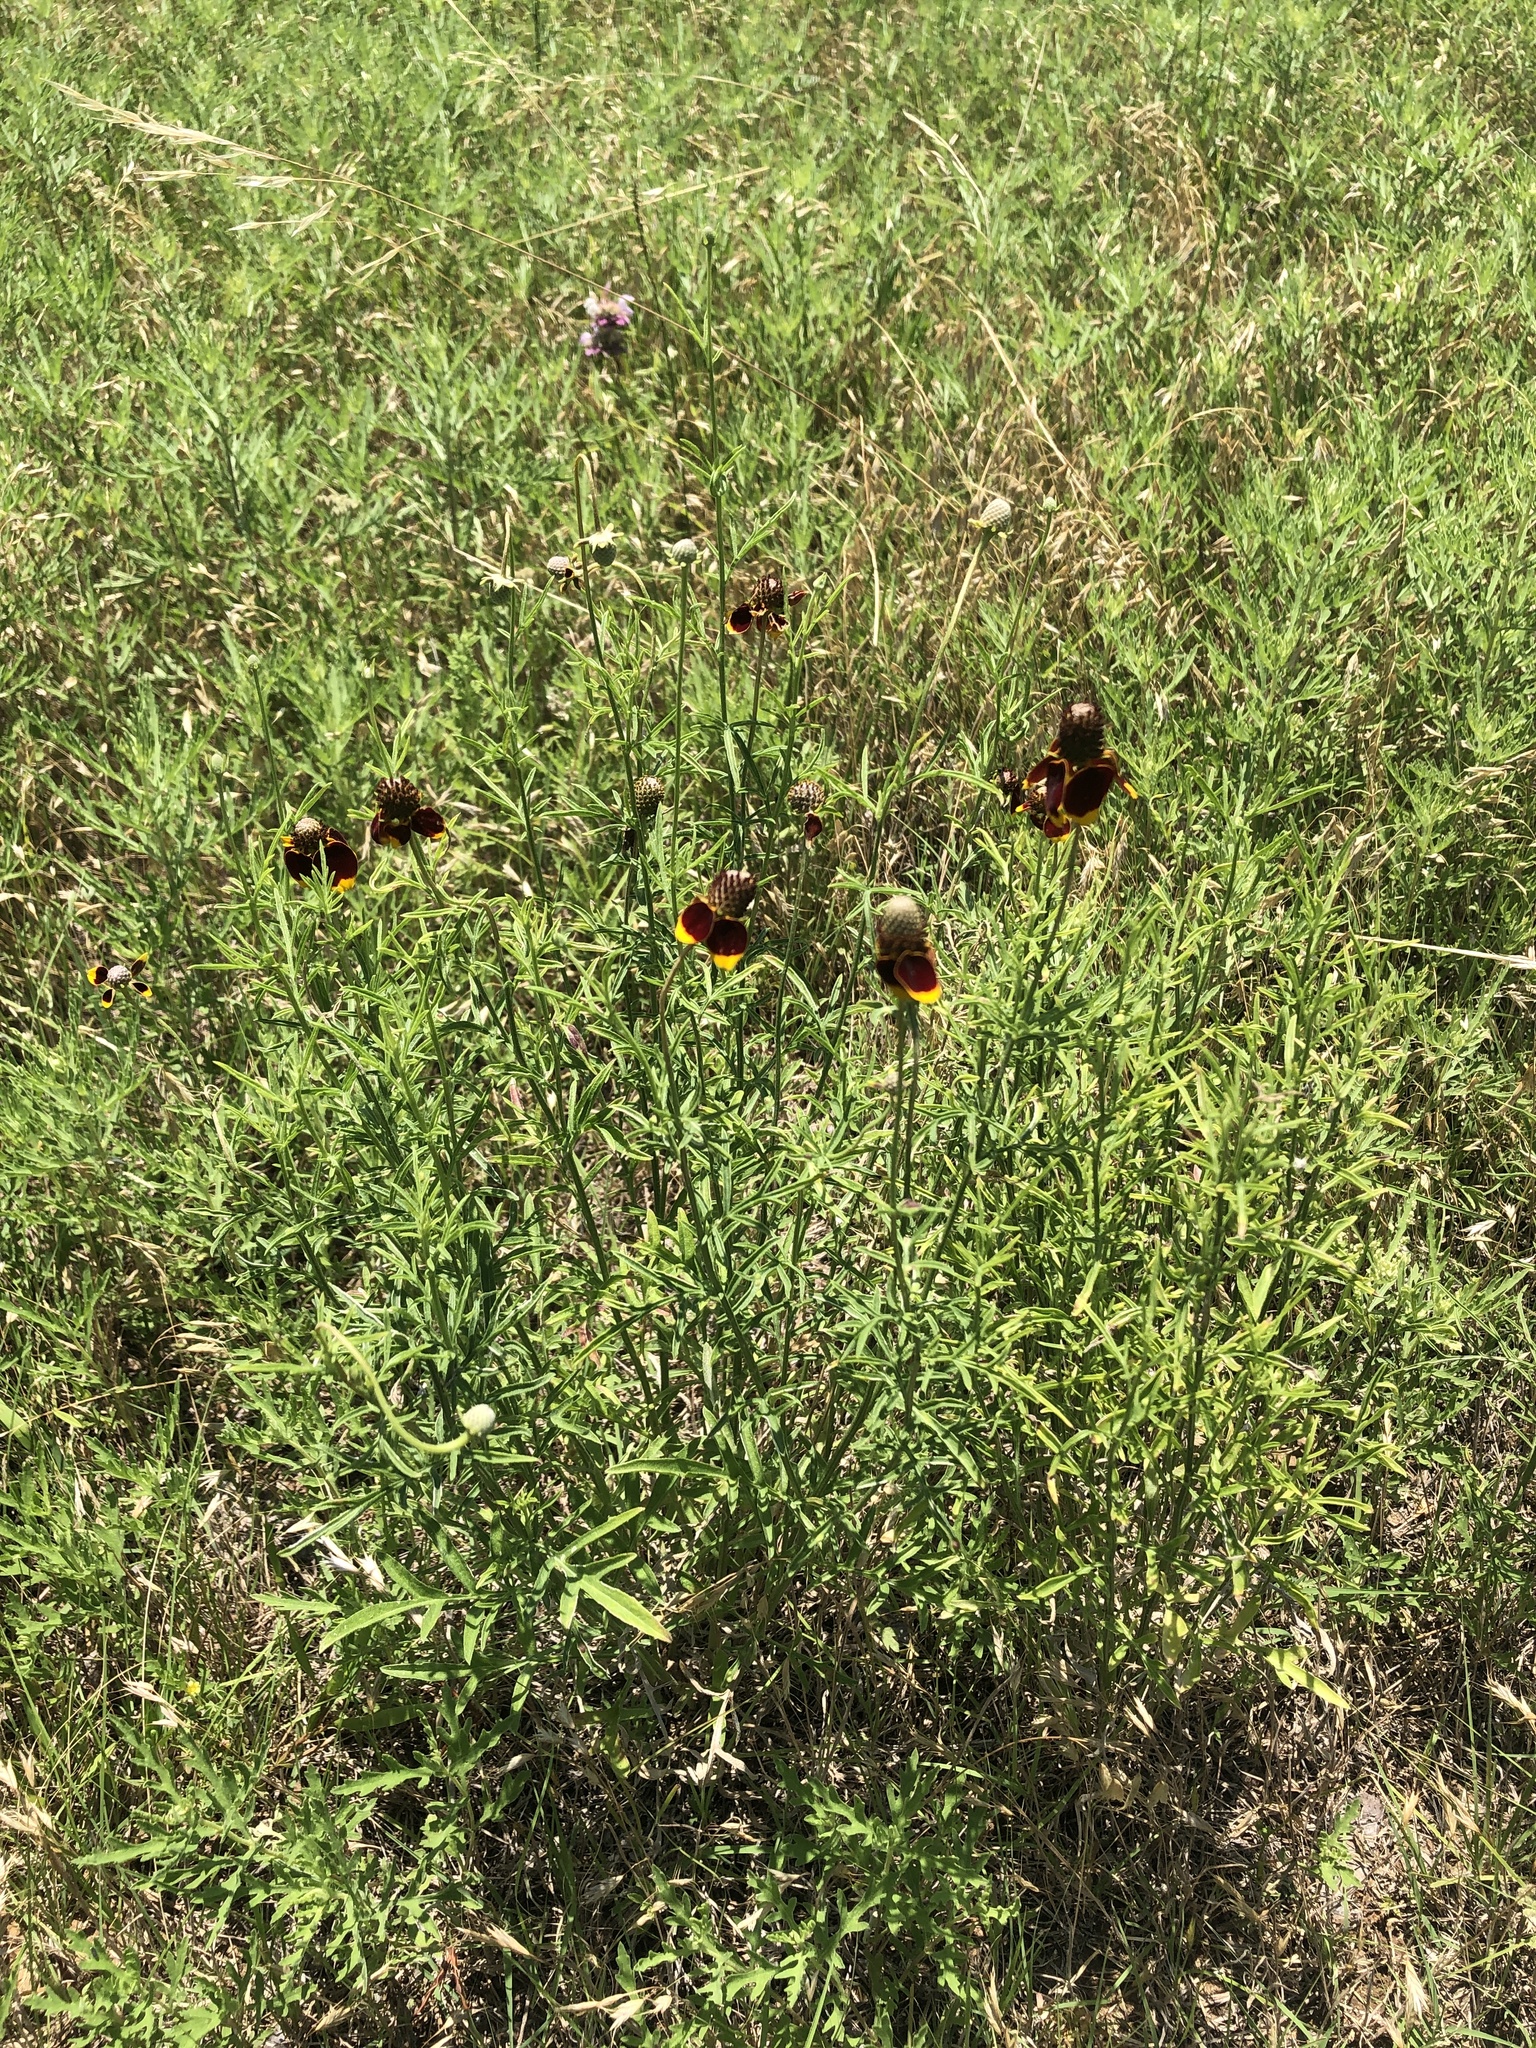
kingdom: Plantae
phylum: Tracheophyta
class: Magnoliopsida
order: Asterales
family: Asteraceae
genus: Ratibida
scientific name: Ratibida columnifera
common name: Prairie coneflower
